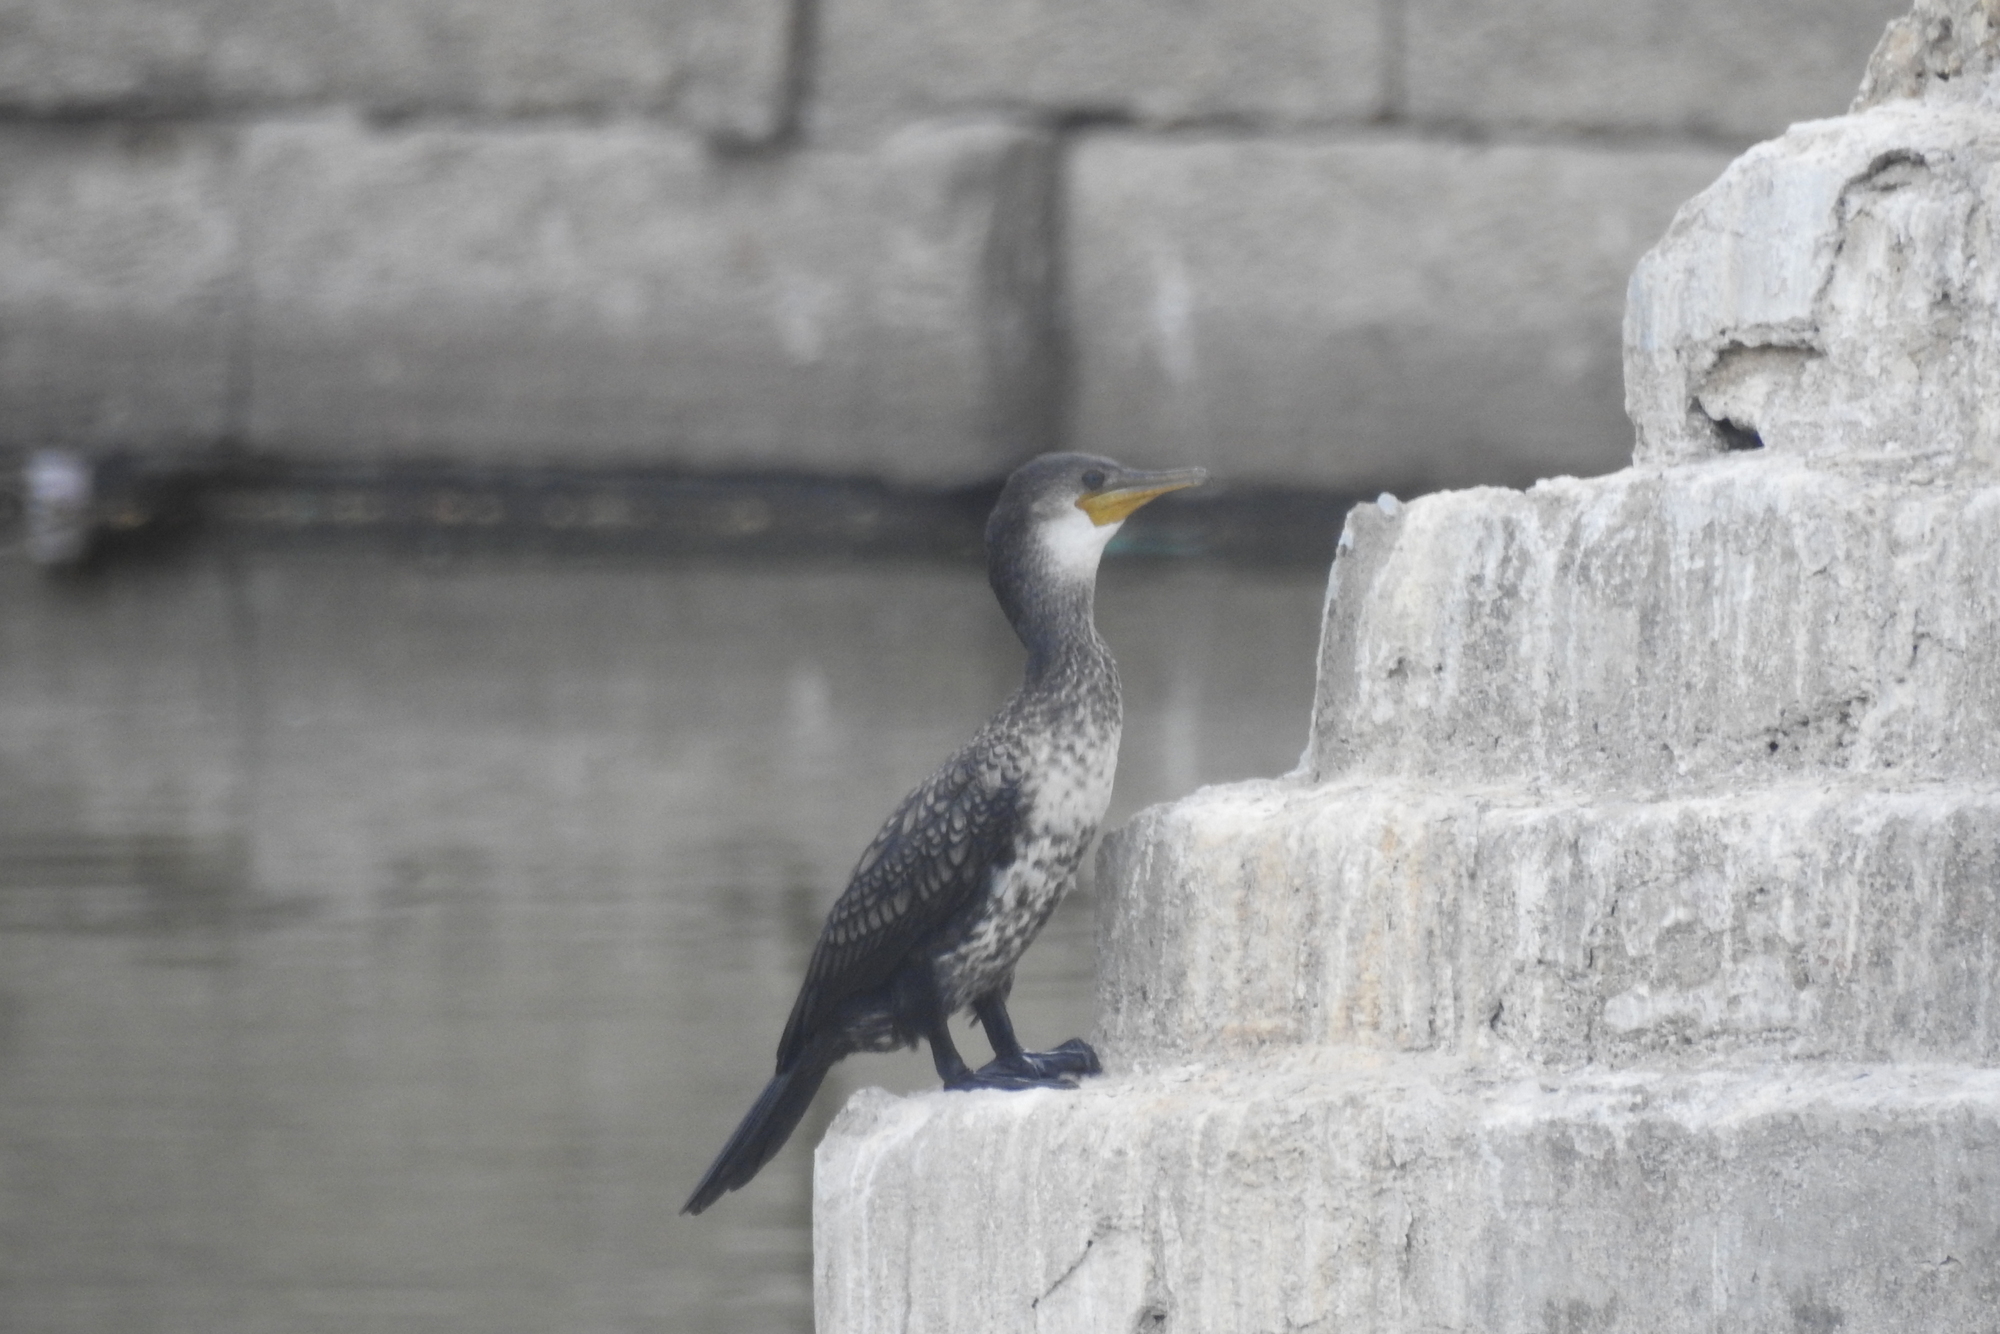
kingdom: Animalia
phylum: Chordata
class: Aves
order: Suliformes
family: Phalacrocoracidae
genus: Phalacrocorax
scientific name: Phalacrocorax fuscicollis
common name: Indian cormorant
